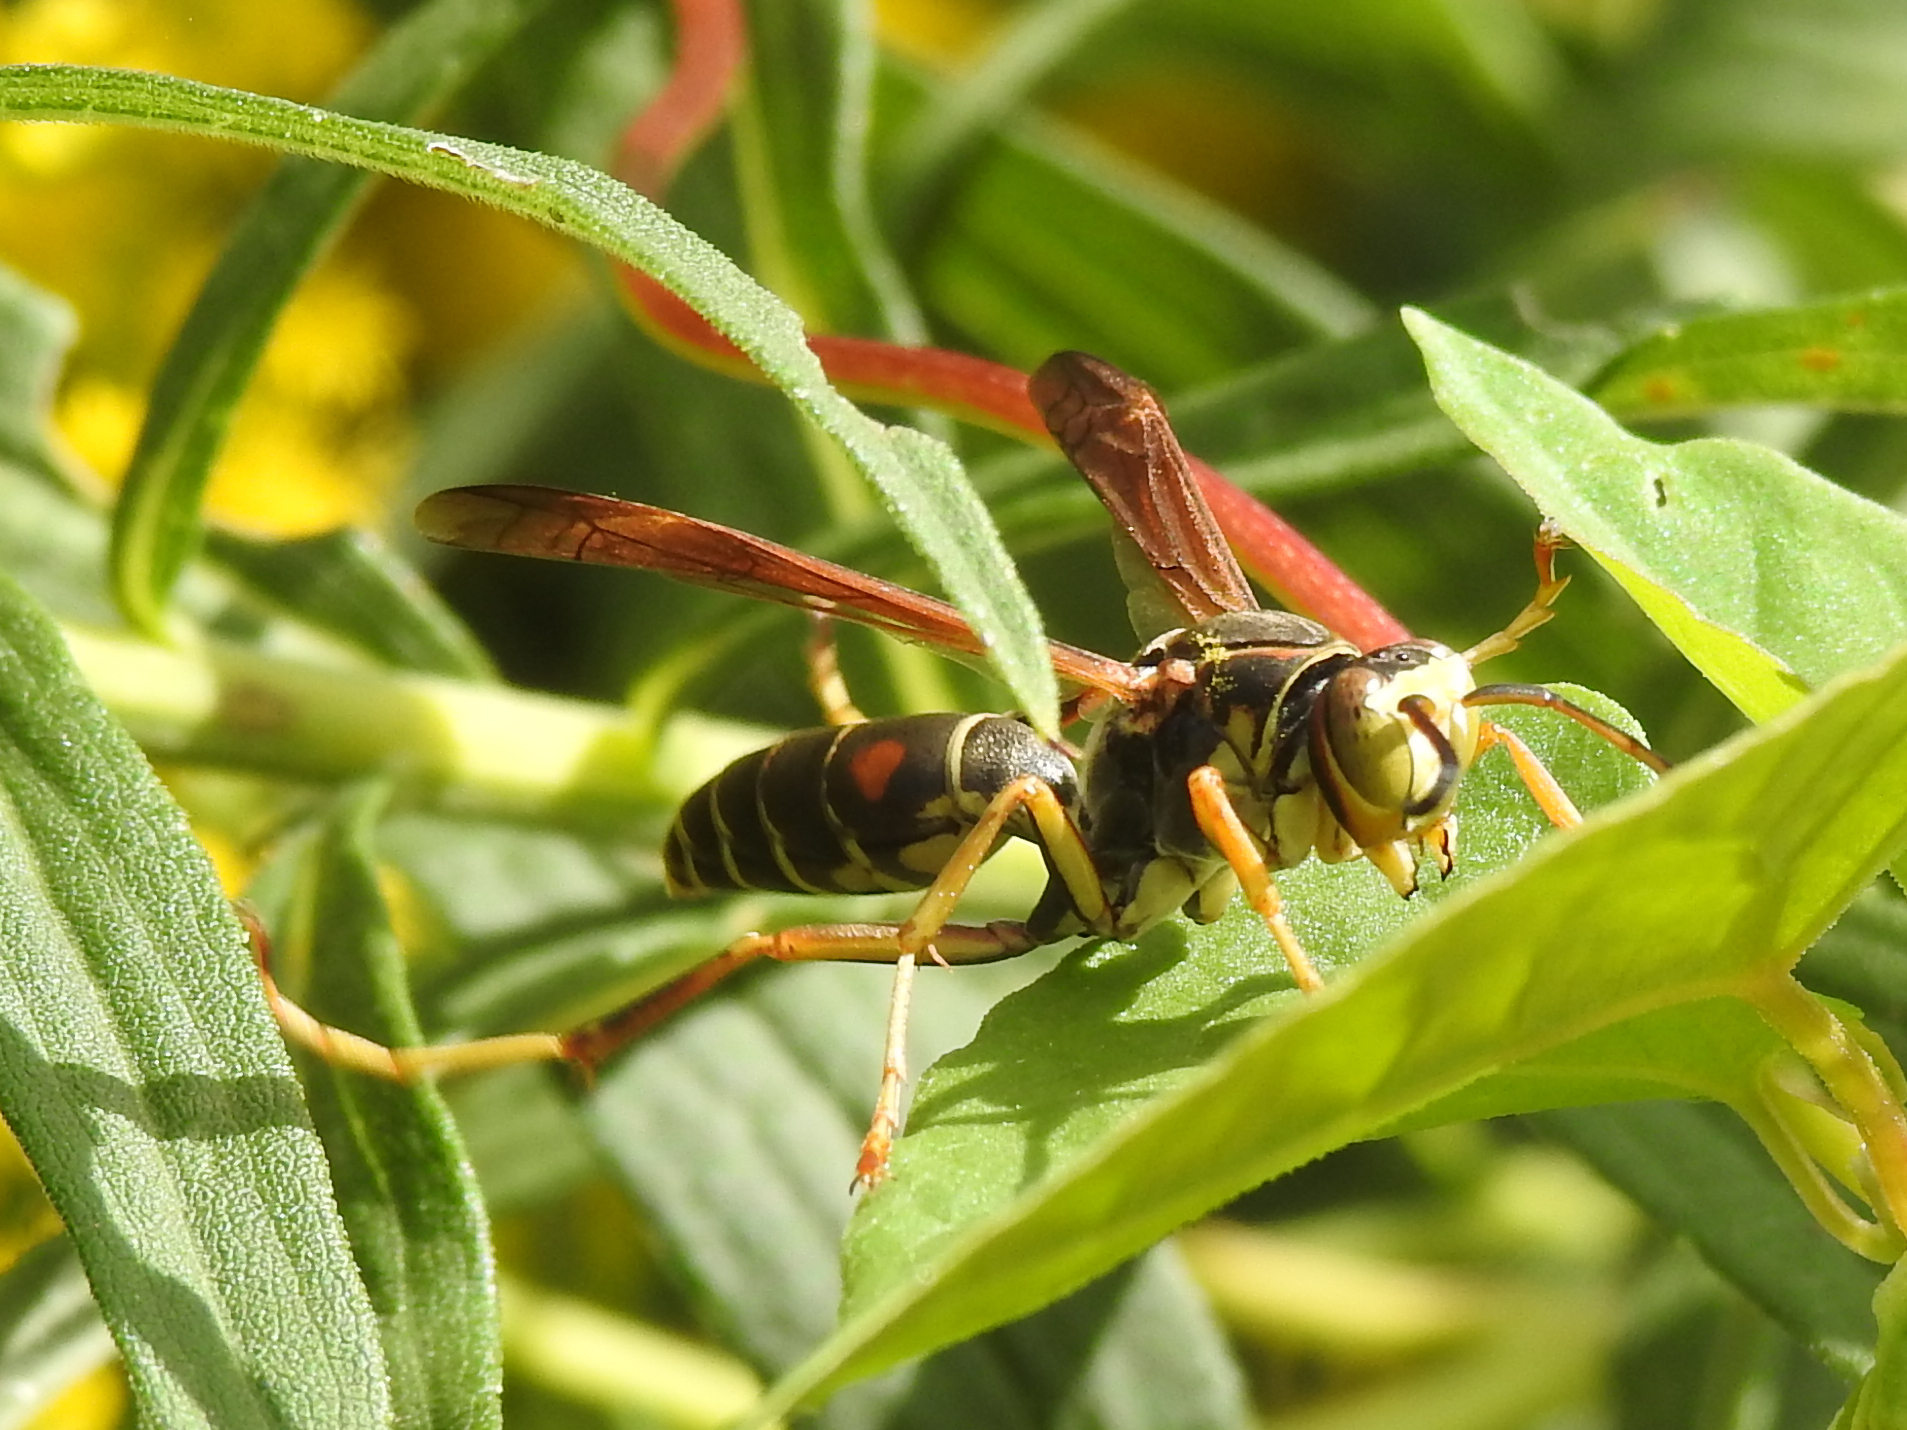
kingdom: Animalia
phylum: Arthropoda
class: Insecta
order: Hymenoptera
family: Eumenidae
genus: Polistes
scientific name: Polistes fuscatus
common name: Dark paper wasp
